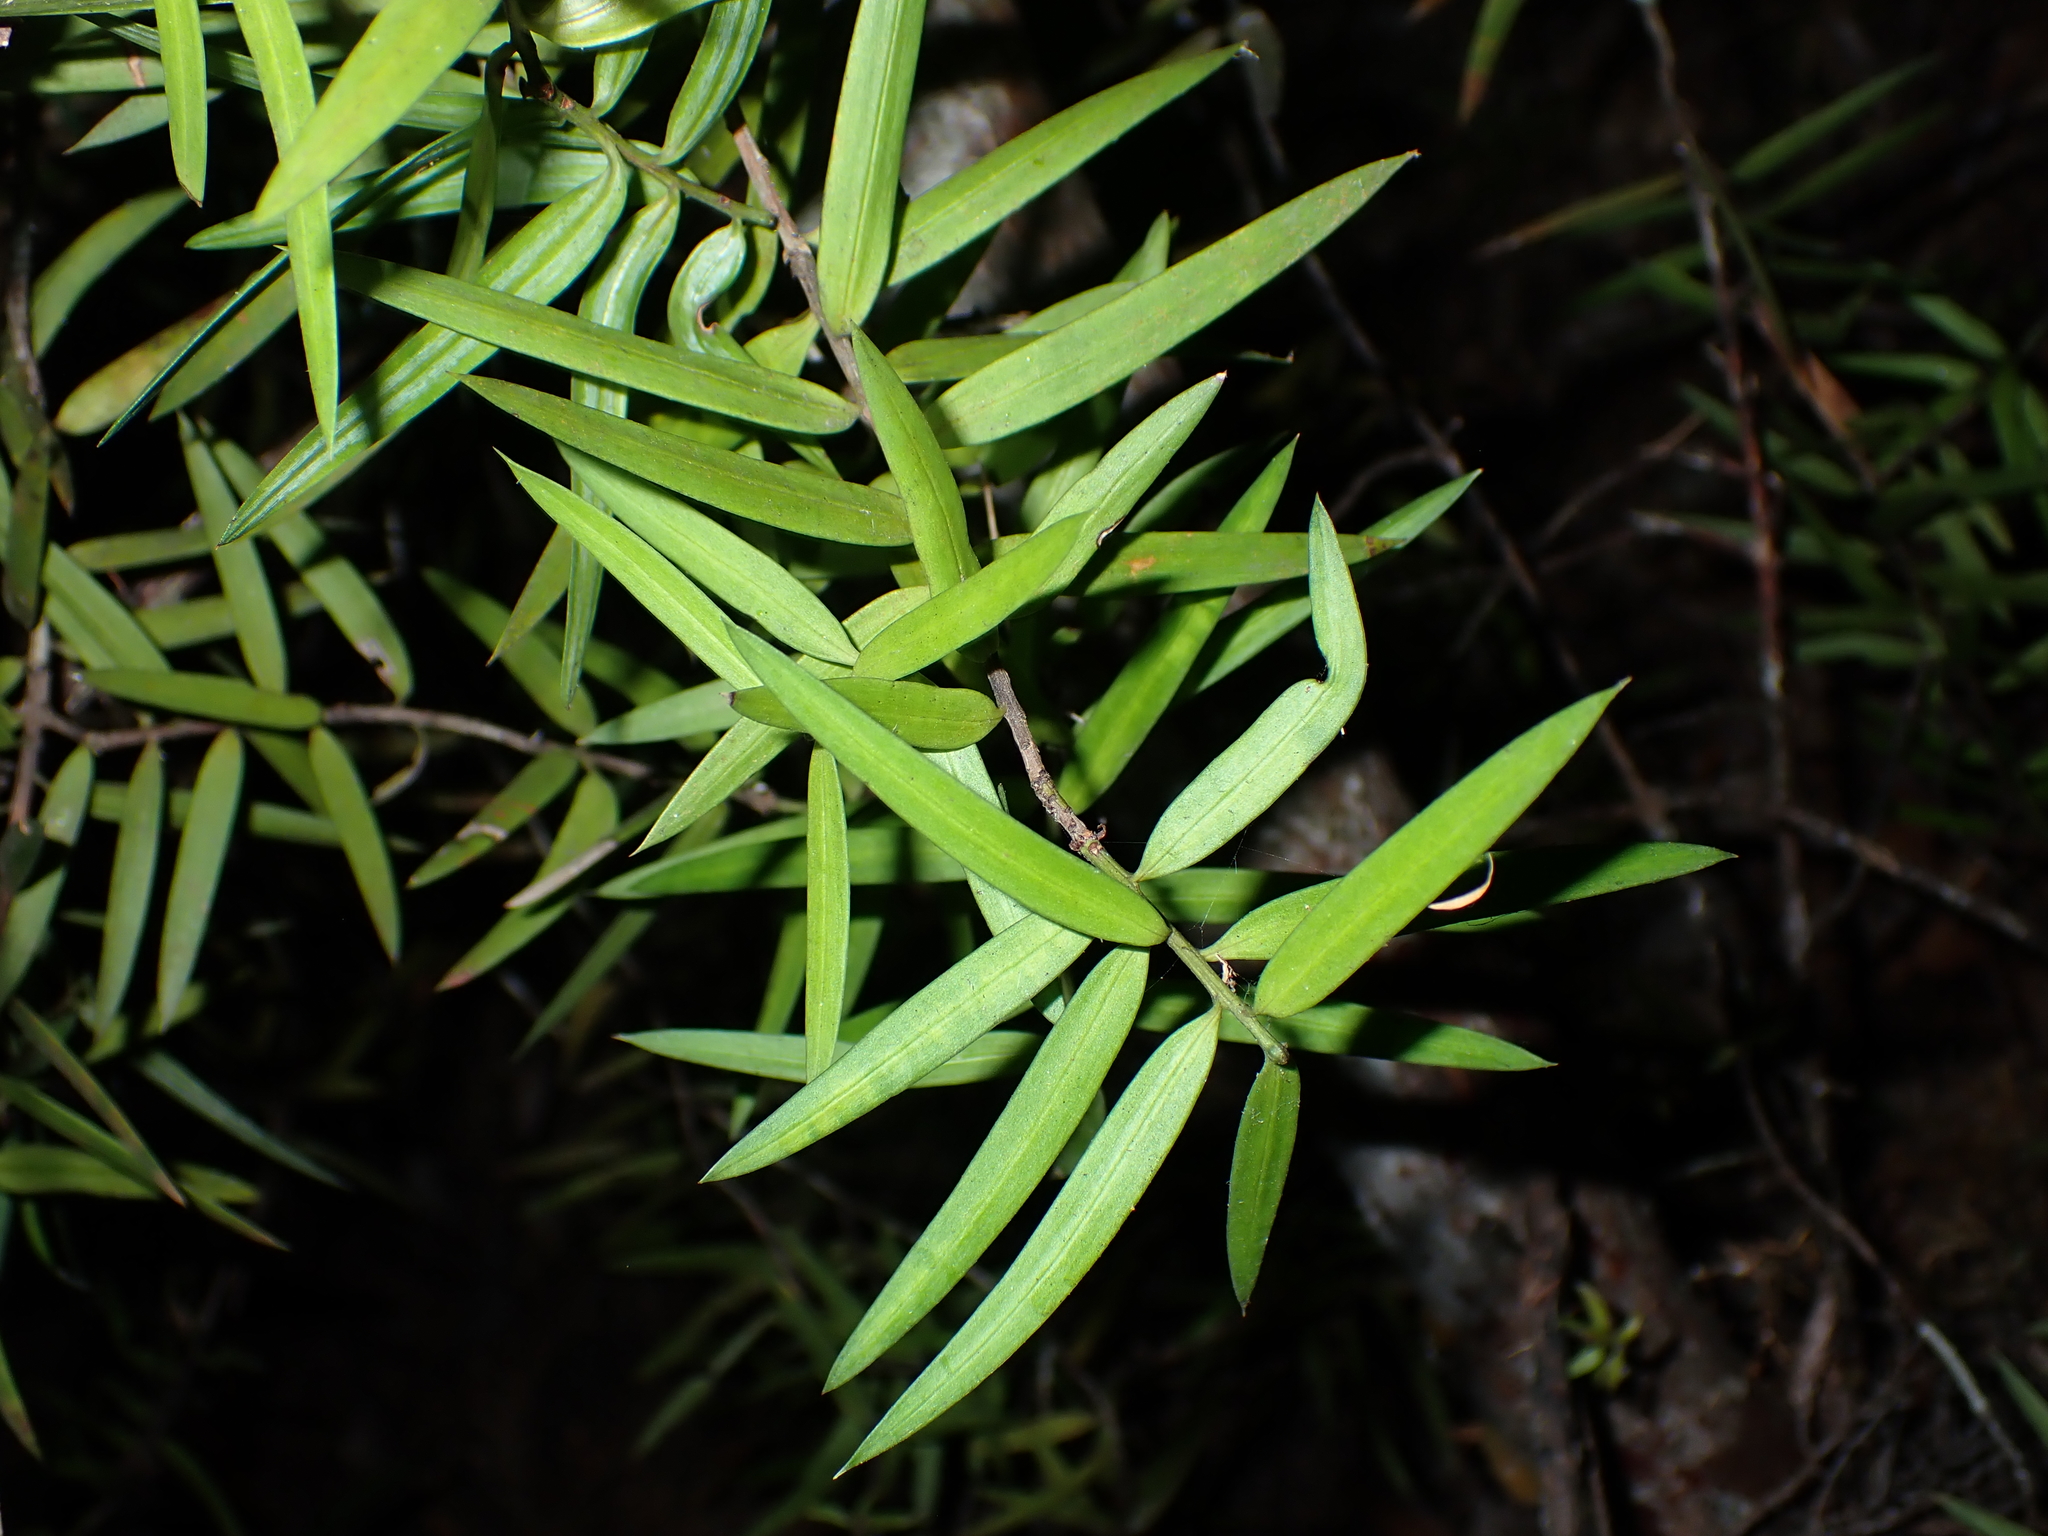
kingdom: Plantae
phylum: Tracheophyta
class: Pinopsida
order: Pinales
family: Araucariaceae
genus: Agathis
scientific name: Agathis australis
